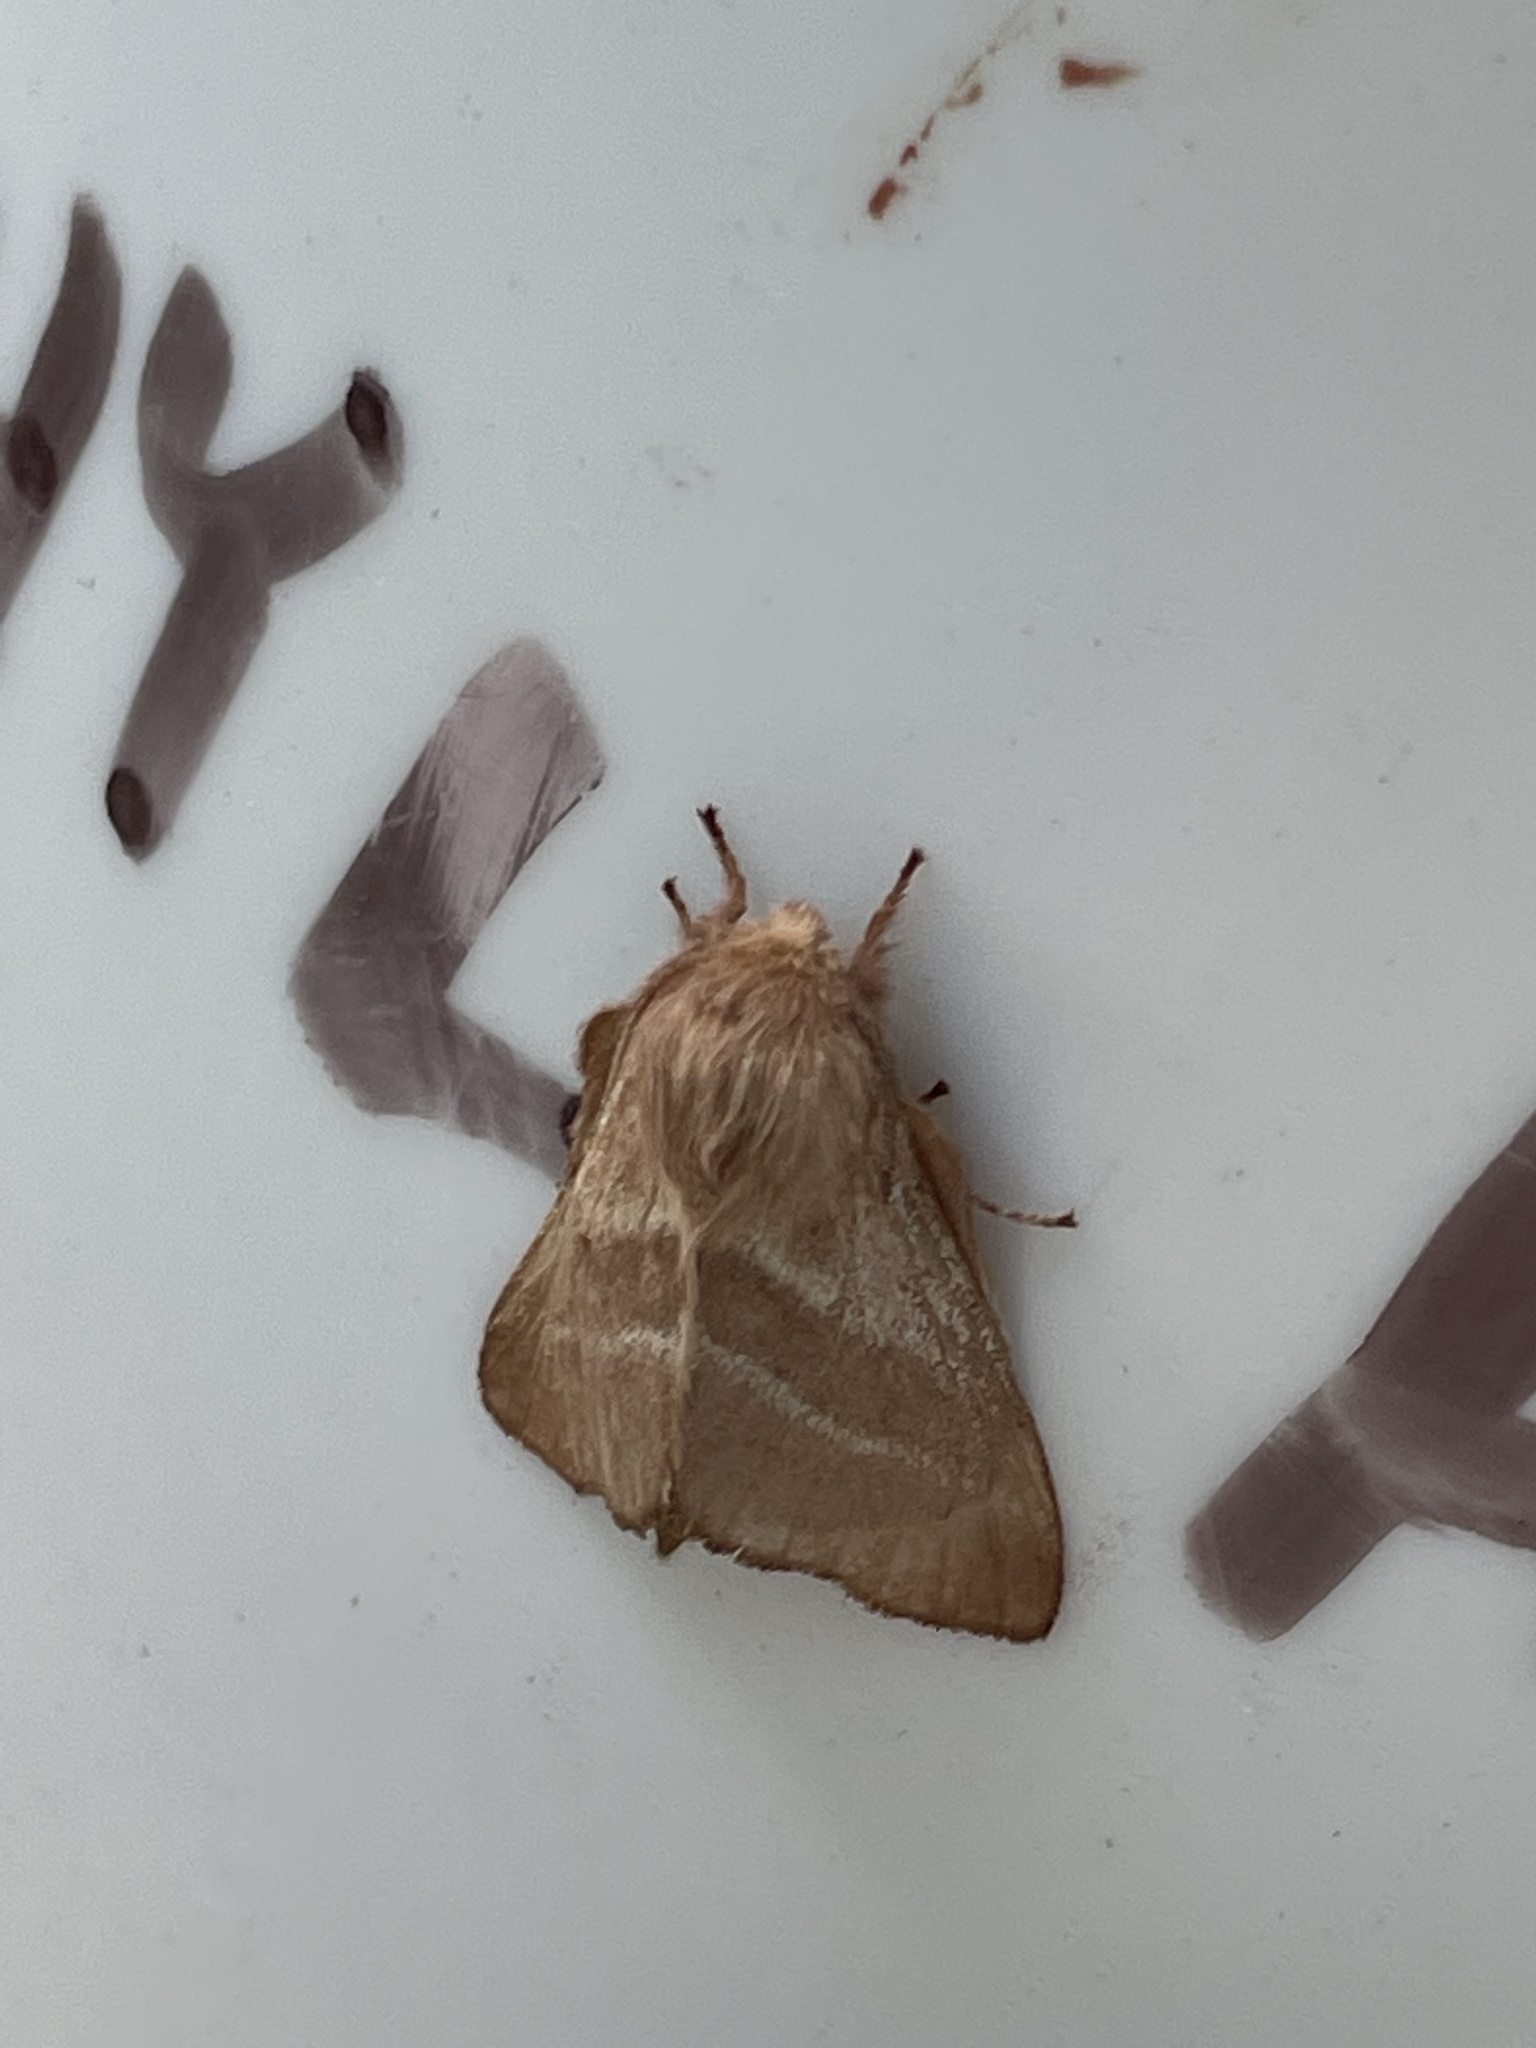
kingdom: Animalia
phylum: Arthropoda
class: Insecta
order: Lepidoptera
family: Lasiocampidae
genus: Malacosoma
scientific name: Malacosoma americana
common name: Eastern tent caterpillar moth
